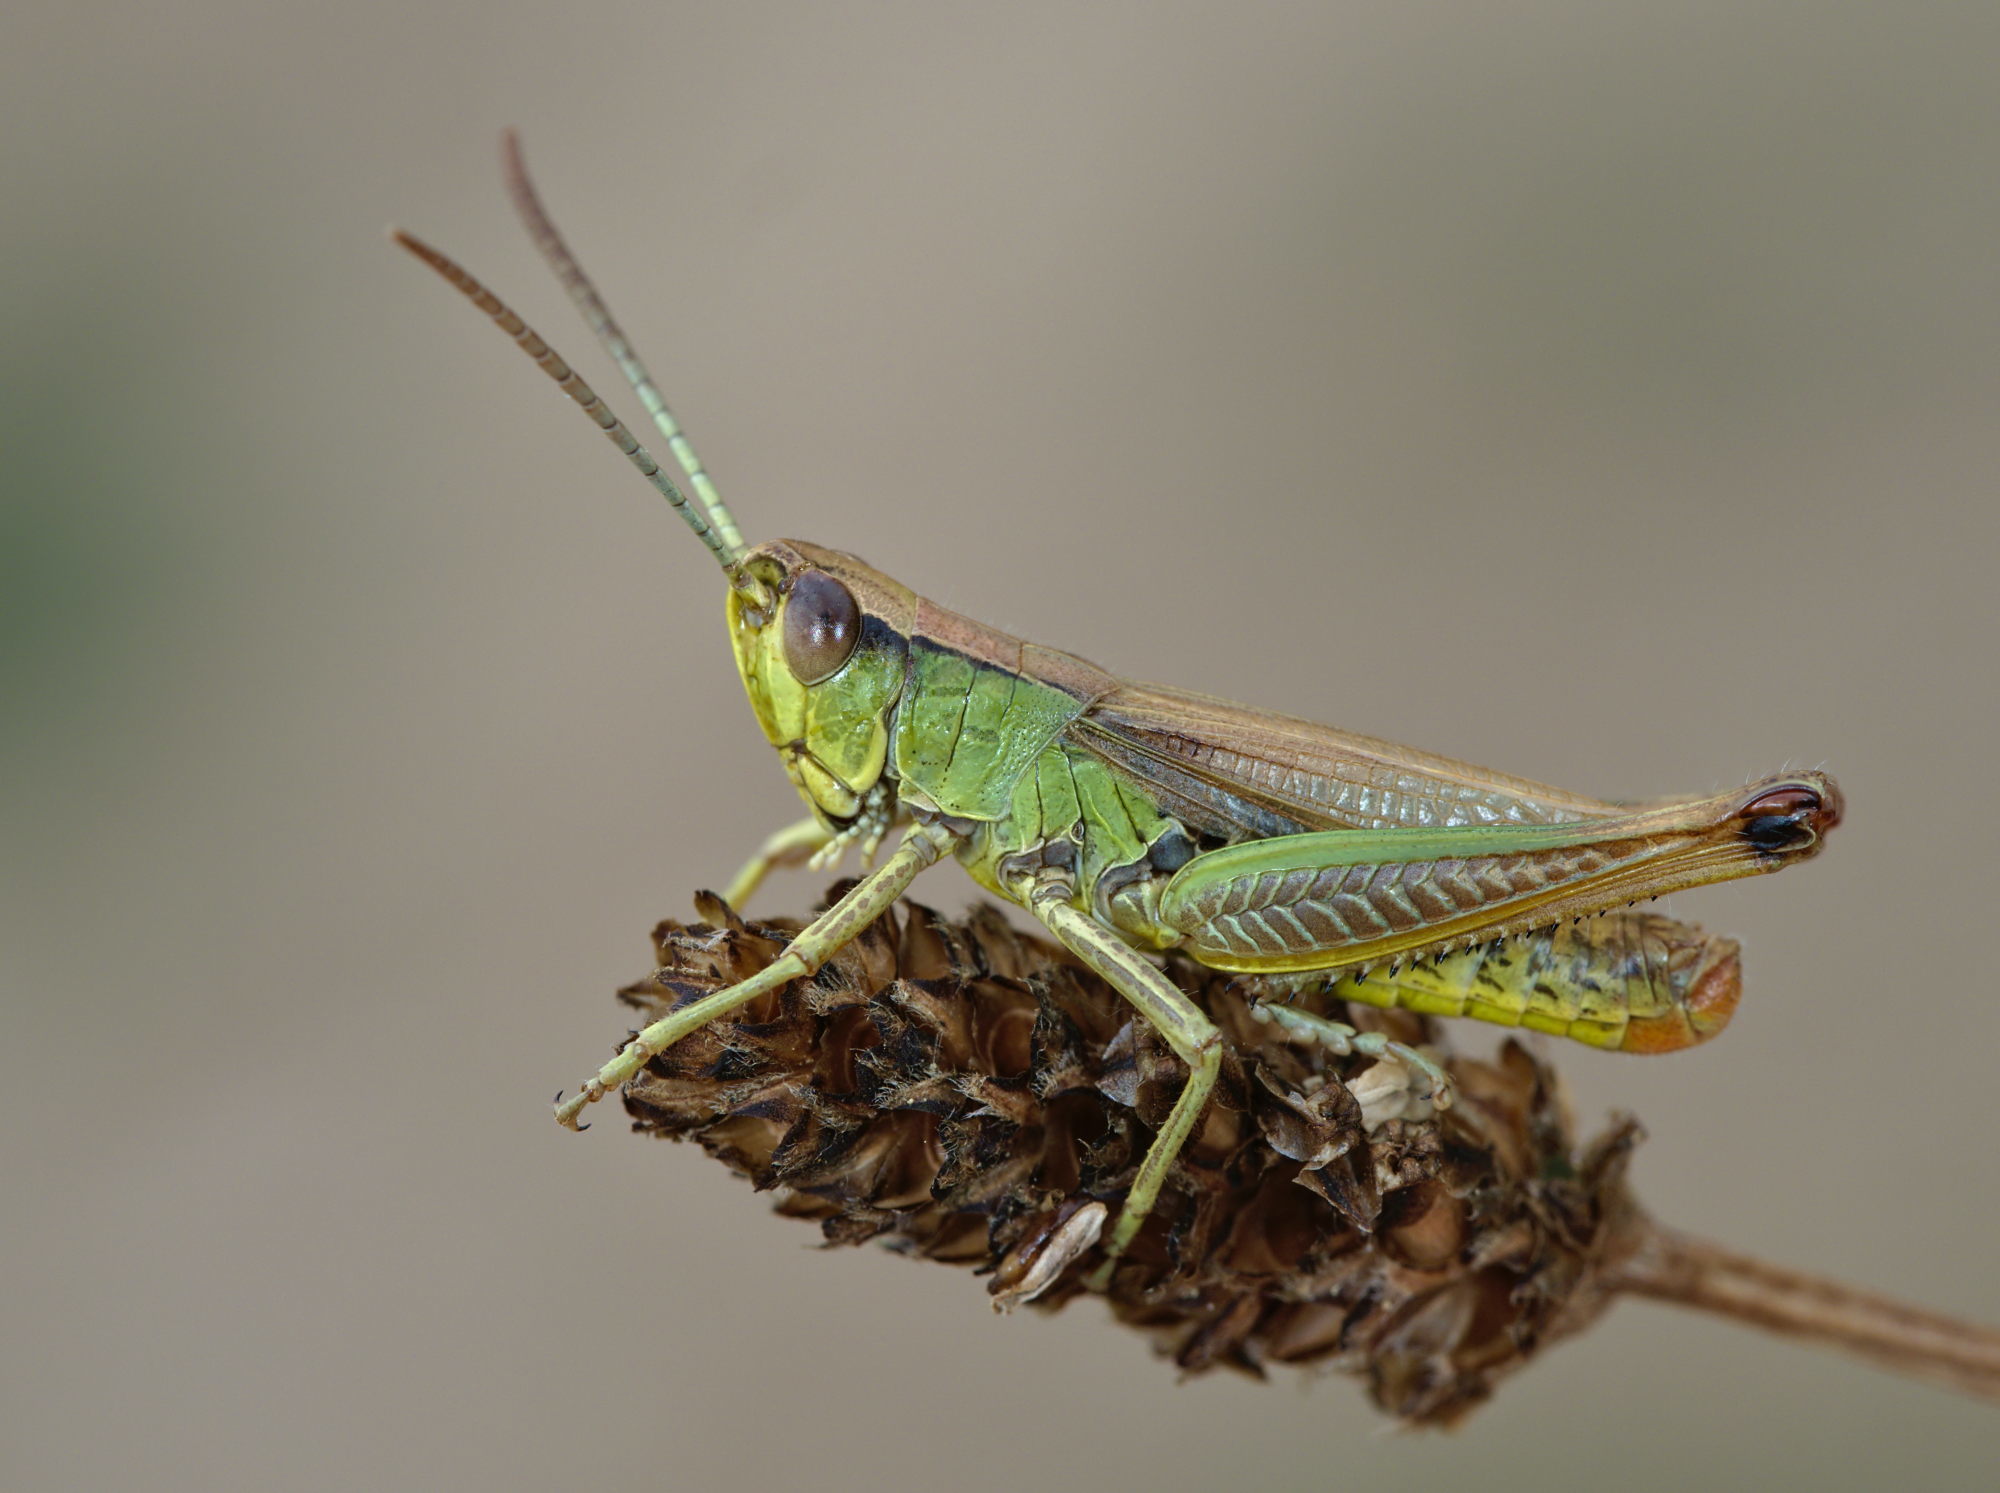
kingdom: Animalia
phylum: Arthropoda
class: Insecta
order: Orthoptera
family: Acrididae
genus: Pseudochorthippus
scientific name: Pseudochorthippus parallelus
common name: Meadow grasshopper
